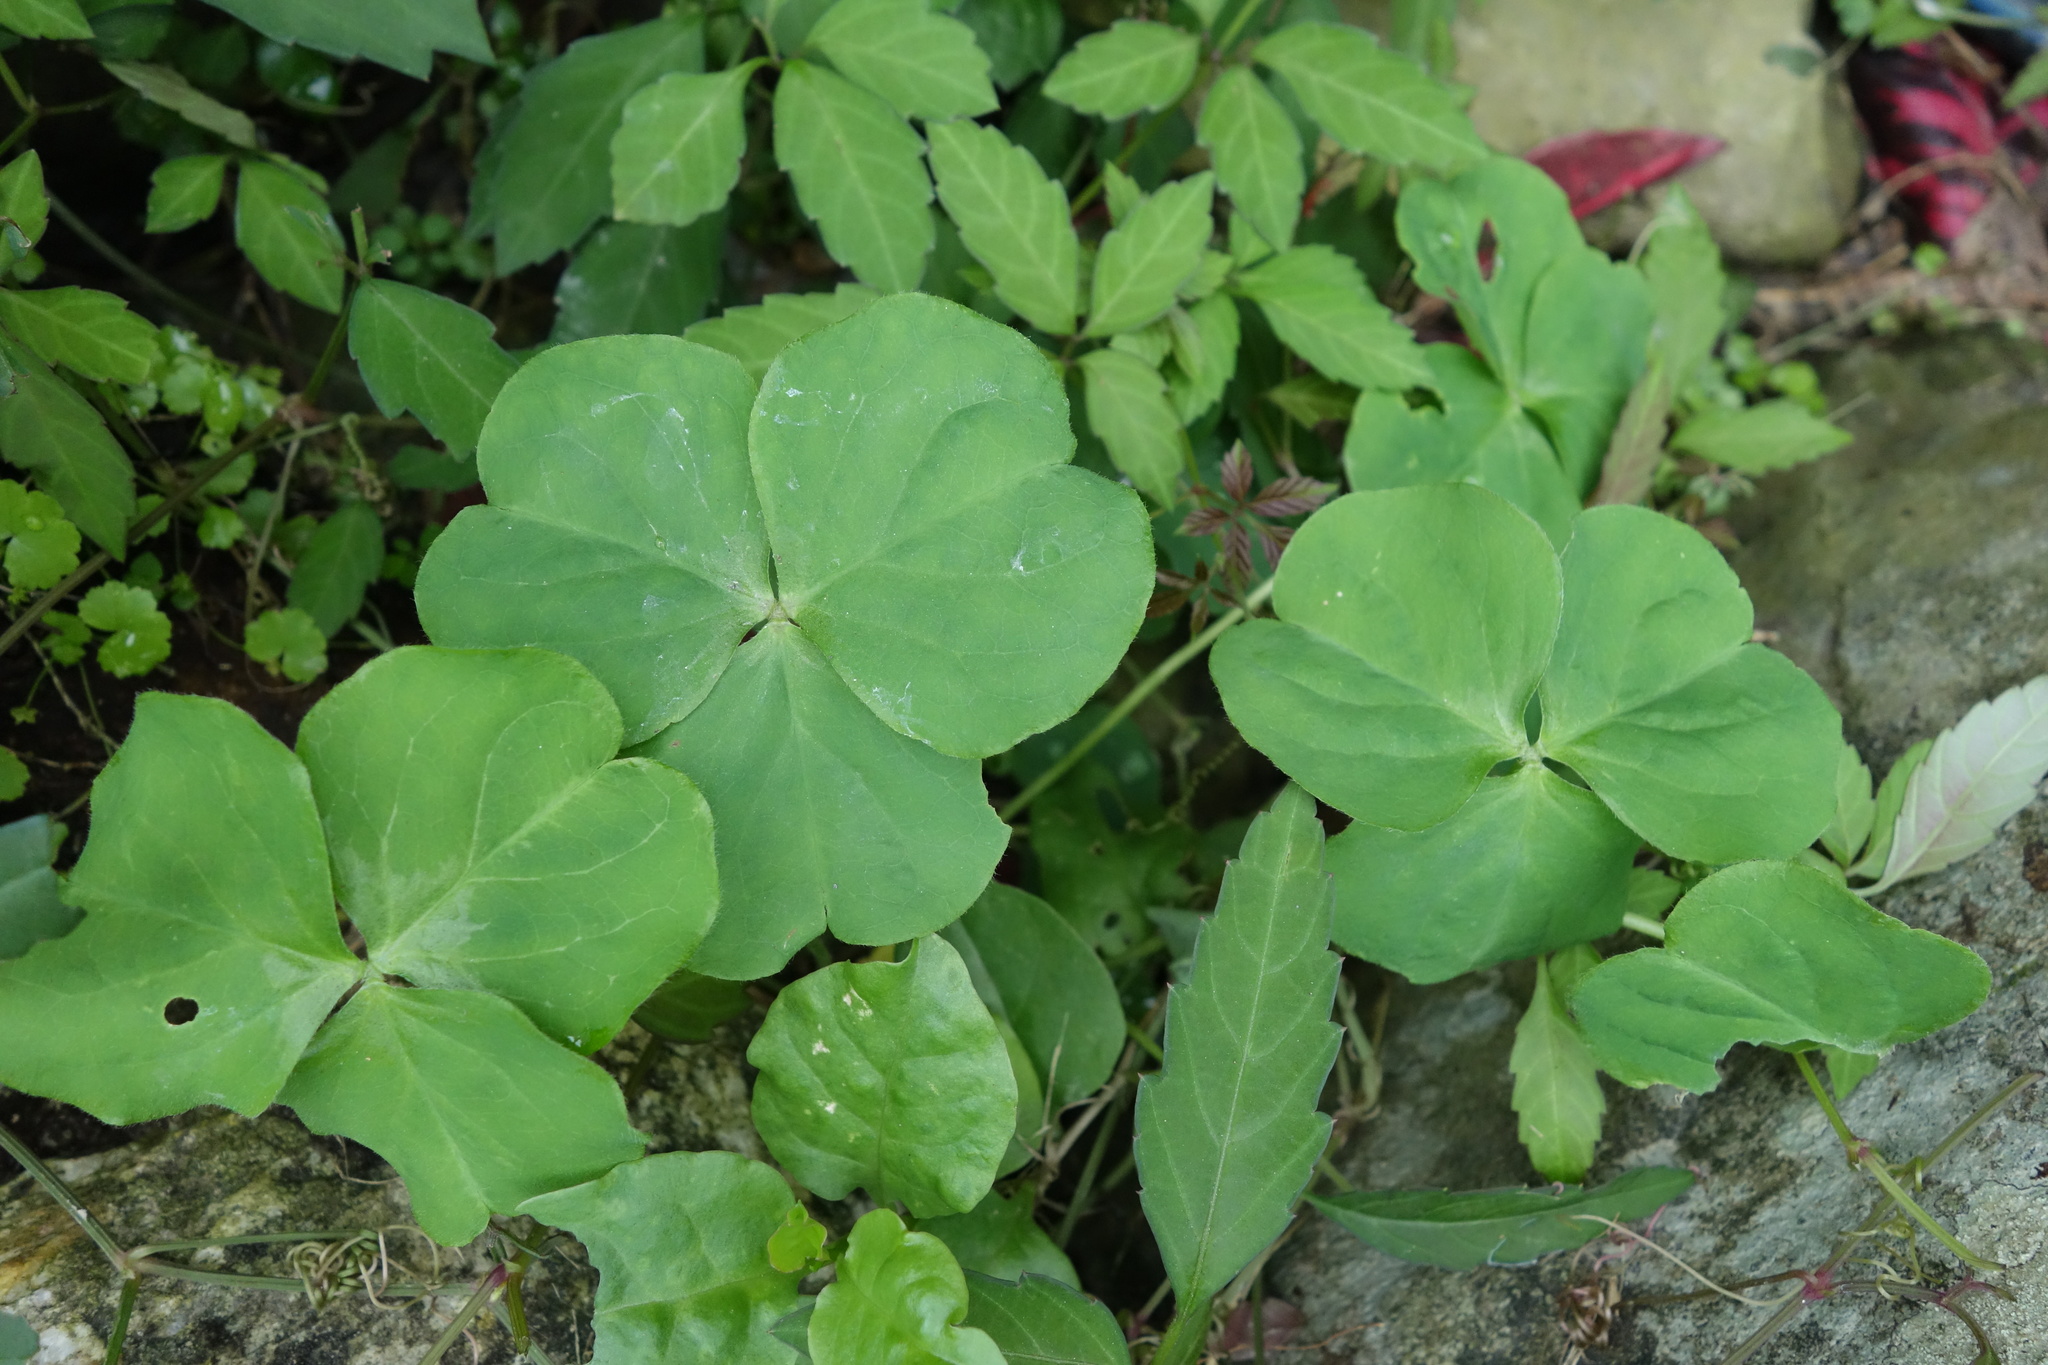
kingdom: Plantae
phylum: Tracheophyta
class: Magnoliopsida
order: Oxalidales
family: Oxalidaceae
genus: Oxalis
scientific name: Oxalis debilis
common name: Large-flowered pink-sorrel
